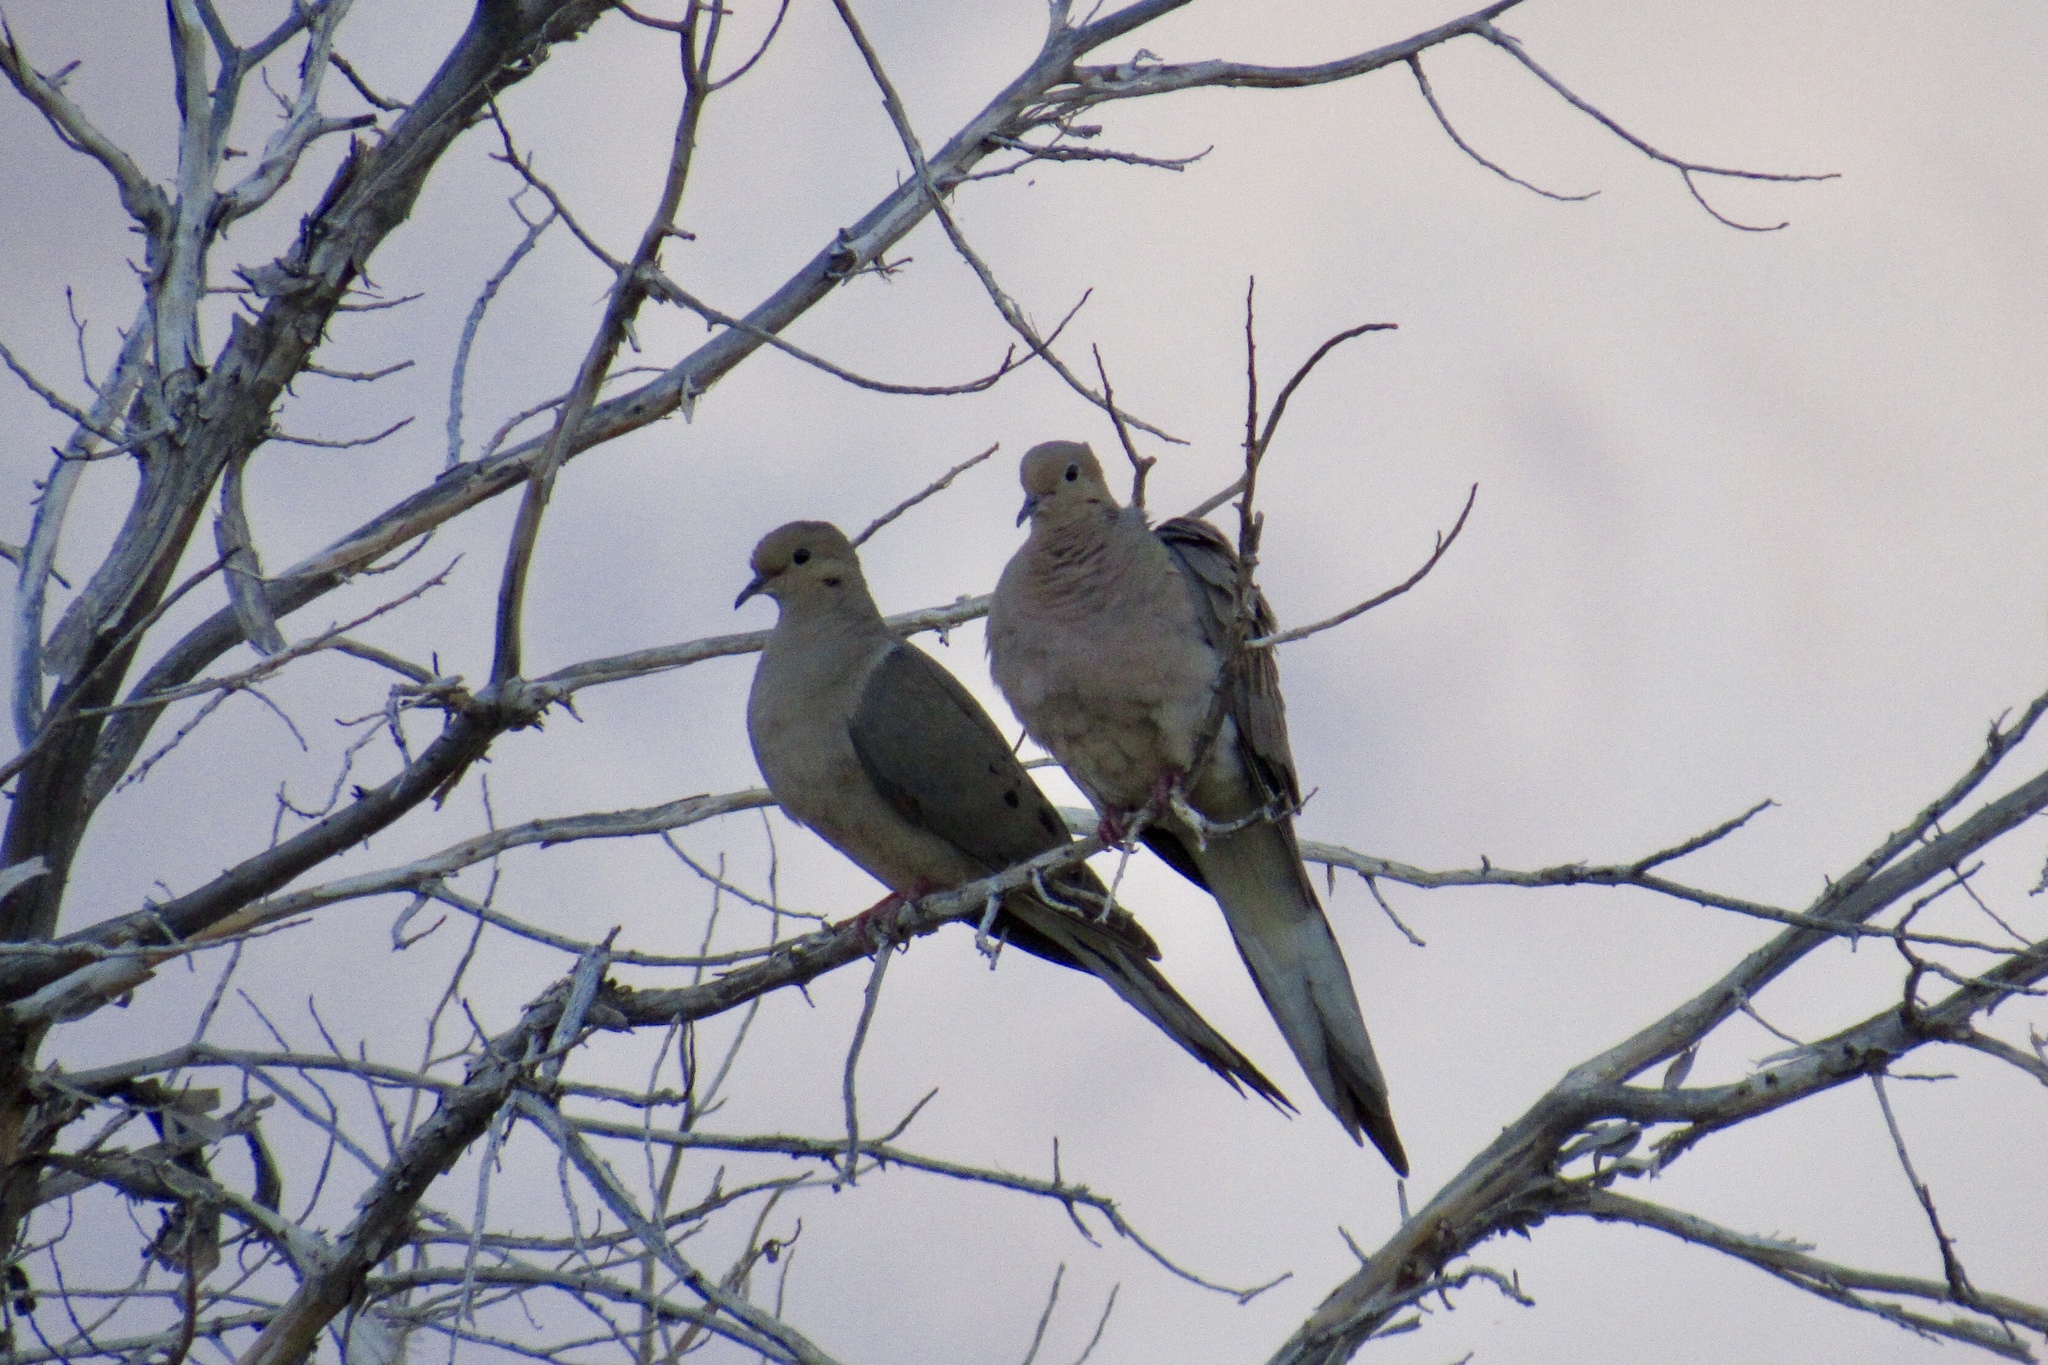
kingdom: Animalia
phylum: Chordata
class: Aves
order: Columbiformes
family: Columbidae
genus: Zenaida
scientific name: Zenaida macroura
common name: Mourning dove
